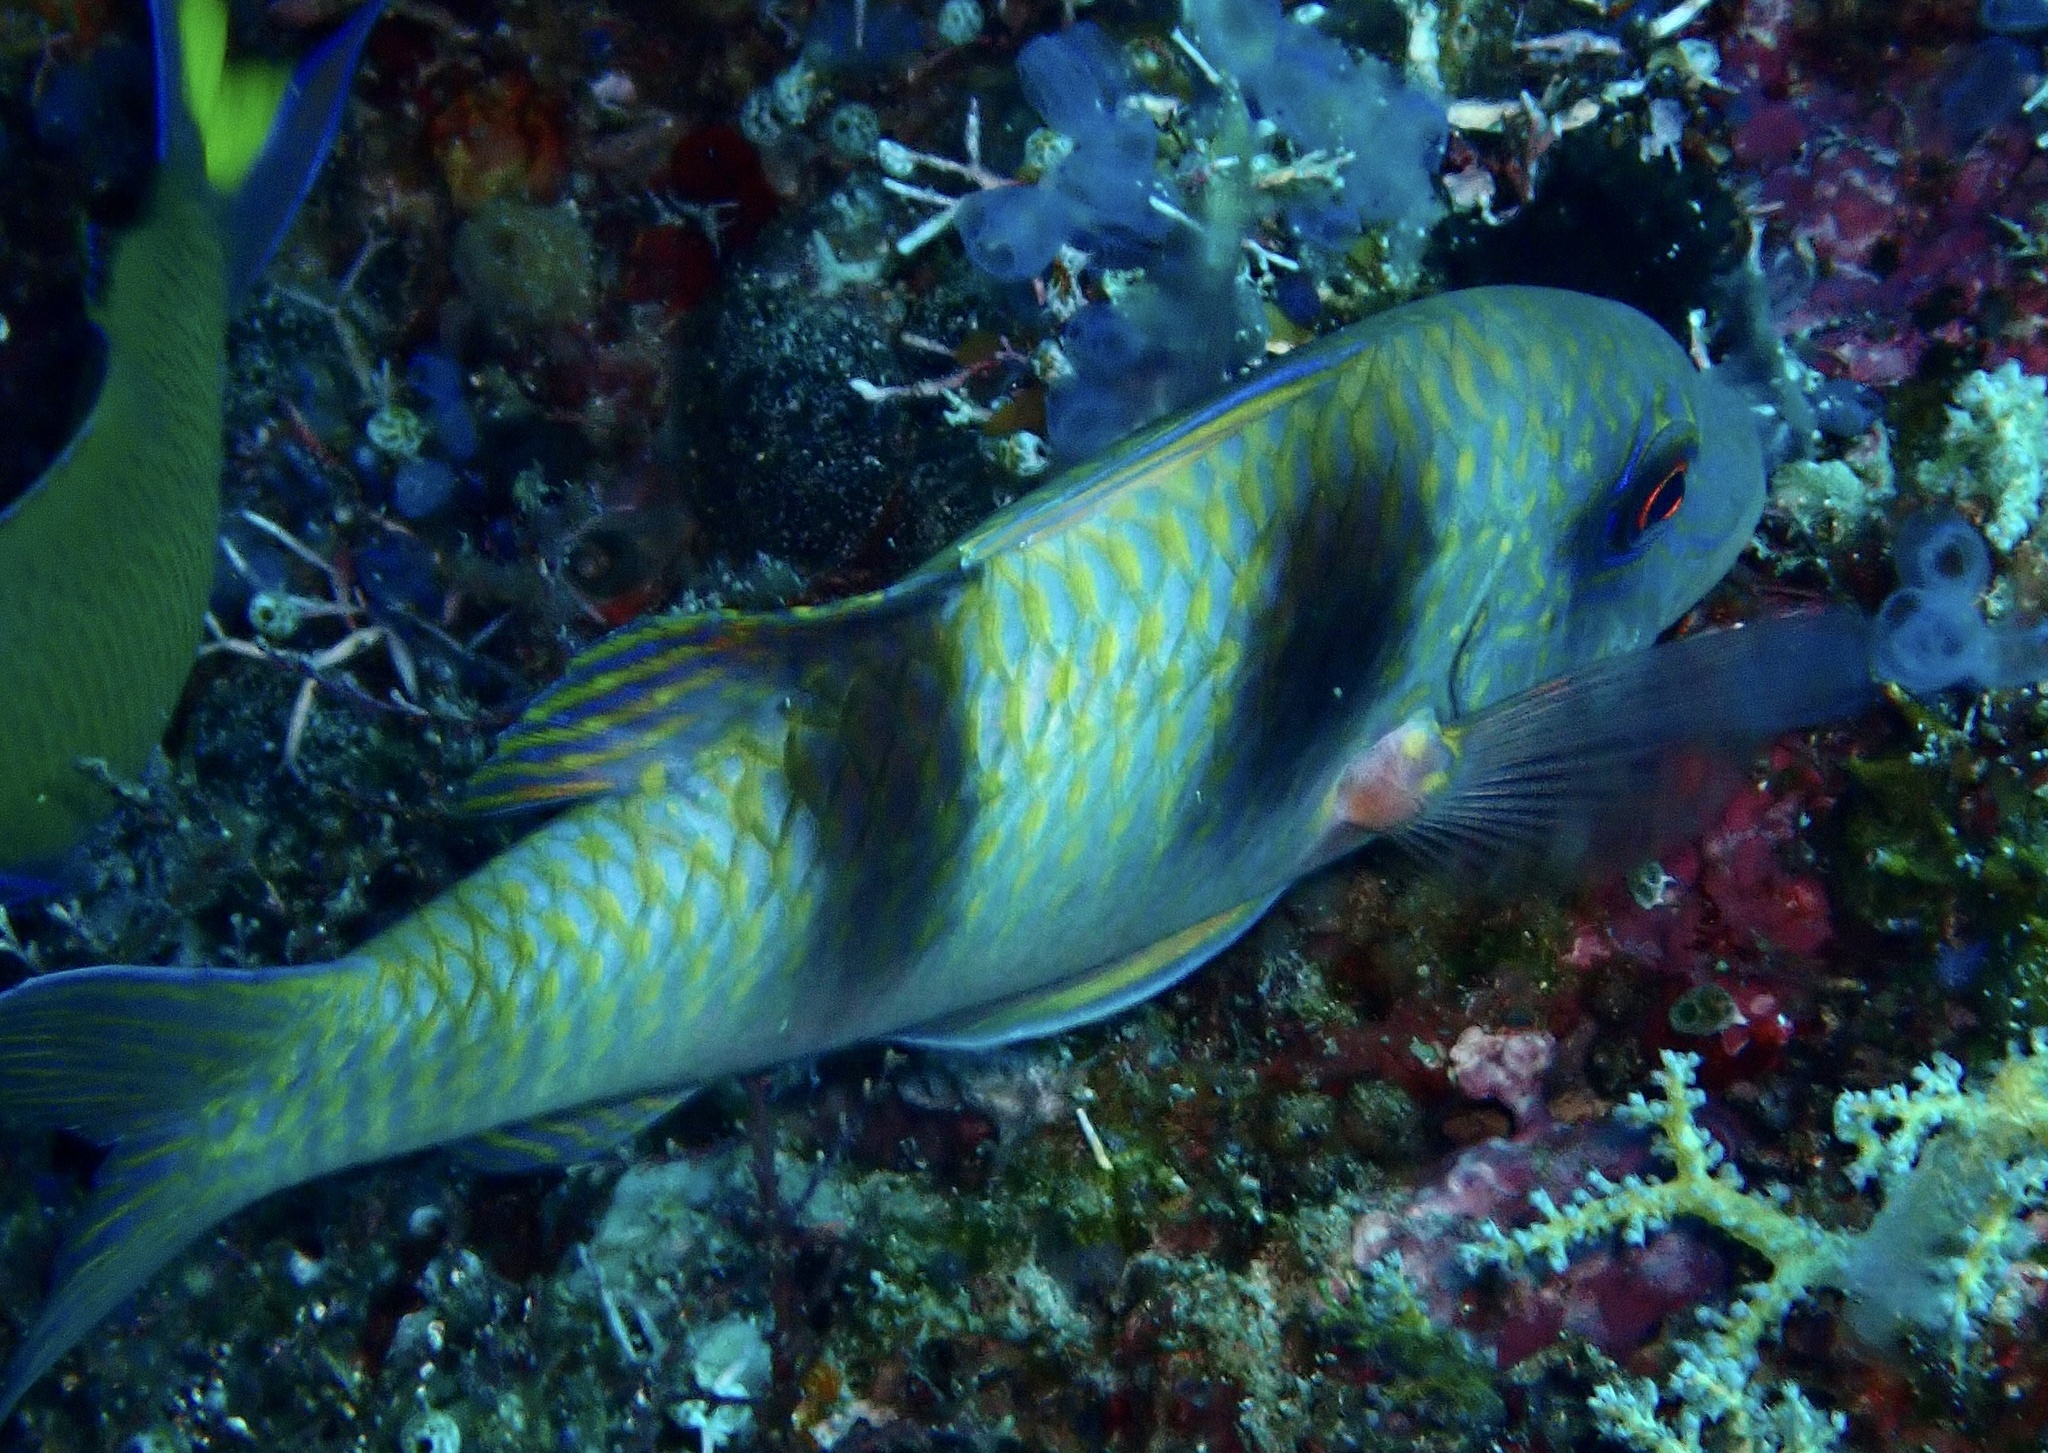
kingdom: Animalia
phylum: Chordata
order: Perciformes
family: Mullidae
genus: Parupeneus
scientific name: Parupeneus crassilabris
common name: Doublebar goatfish
